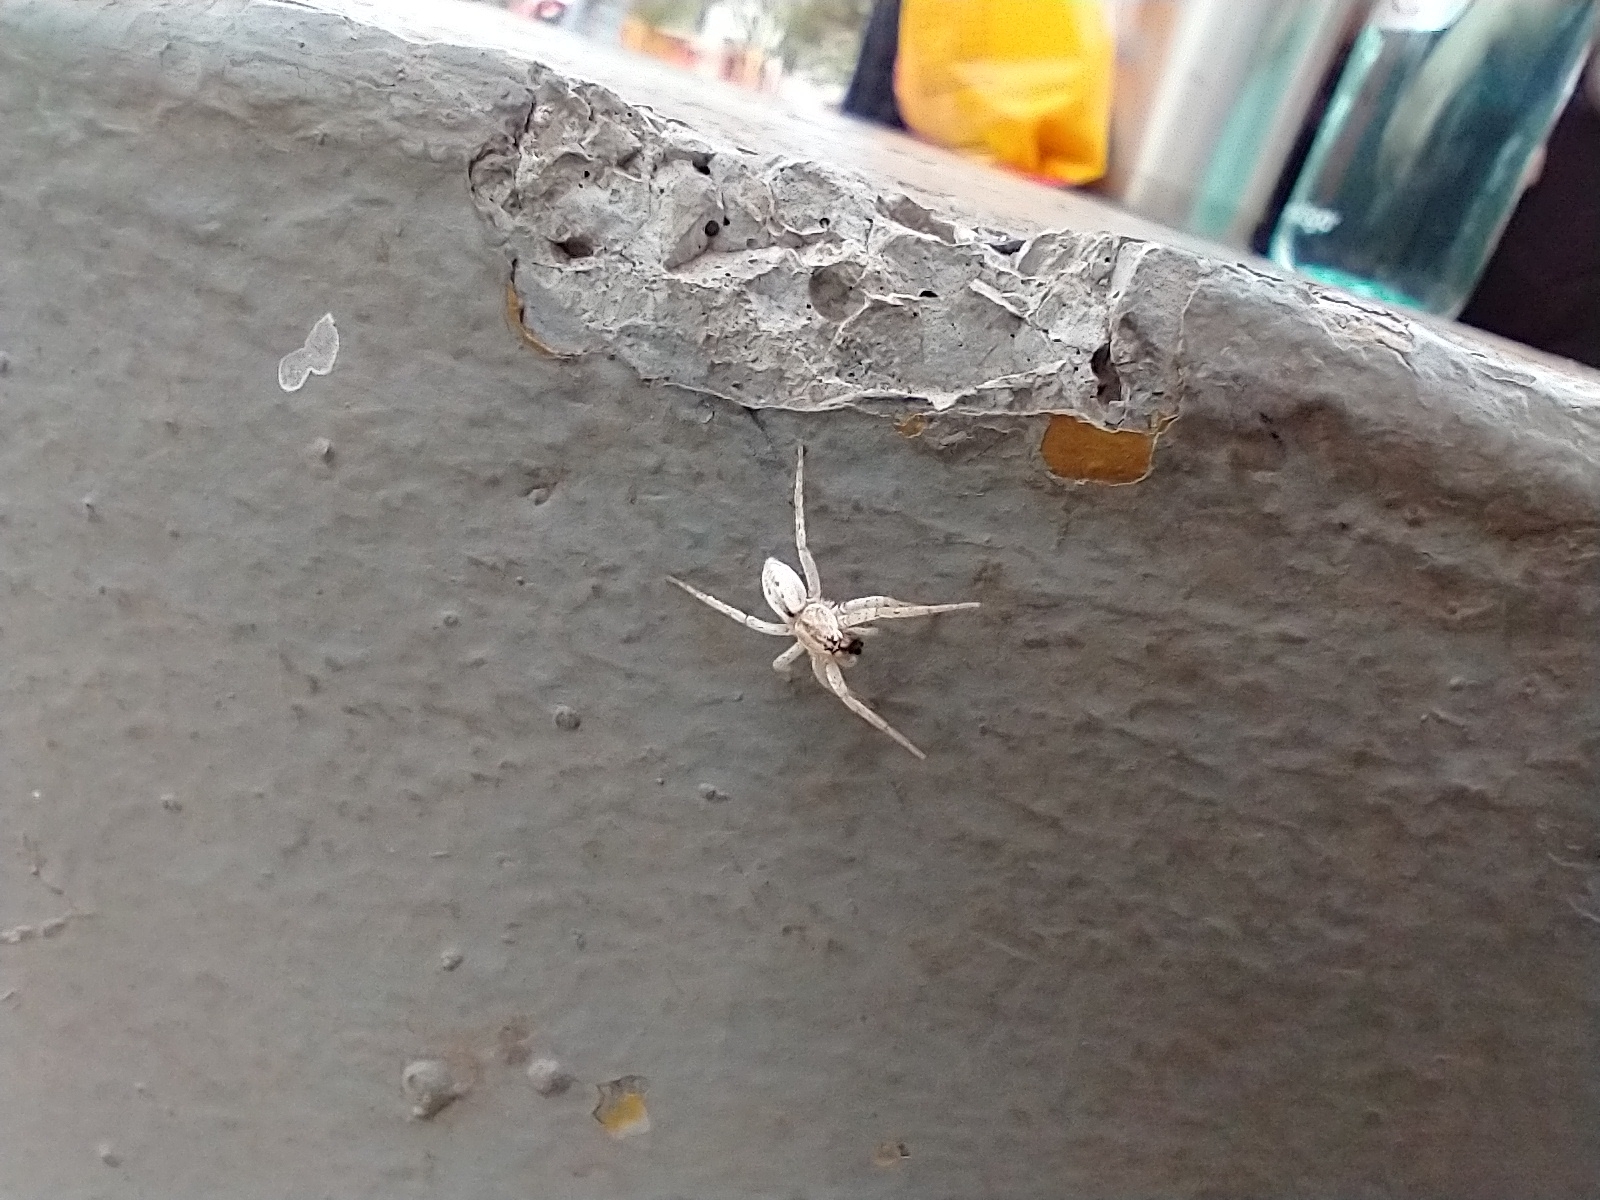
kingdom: Animalia
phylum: Arthropoda
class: Arachnida
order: Araneae
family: Anyphaenidae
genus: Arachosia
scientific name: Arachosia praesignis
